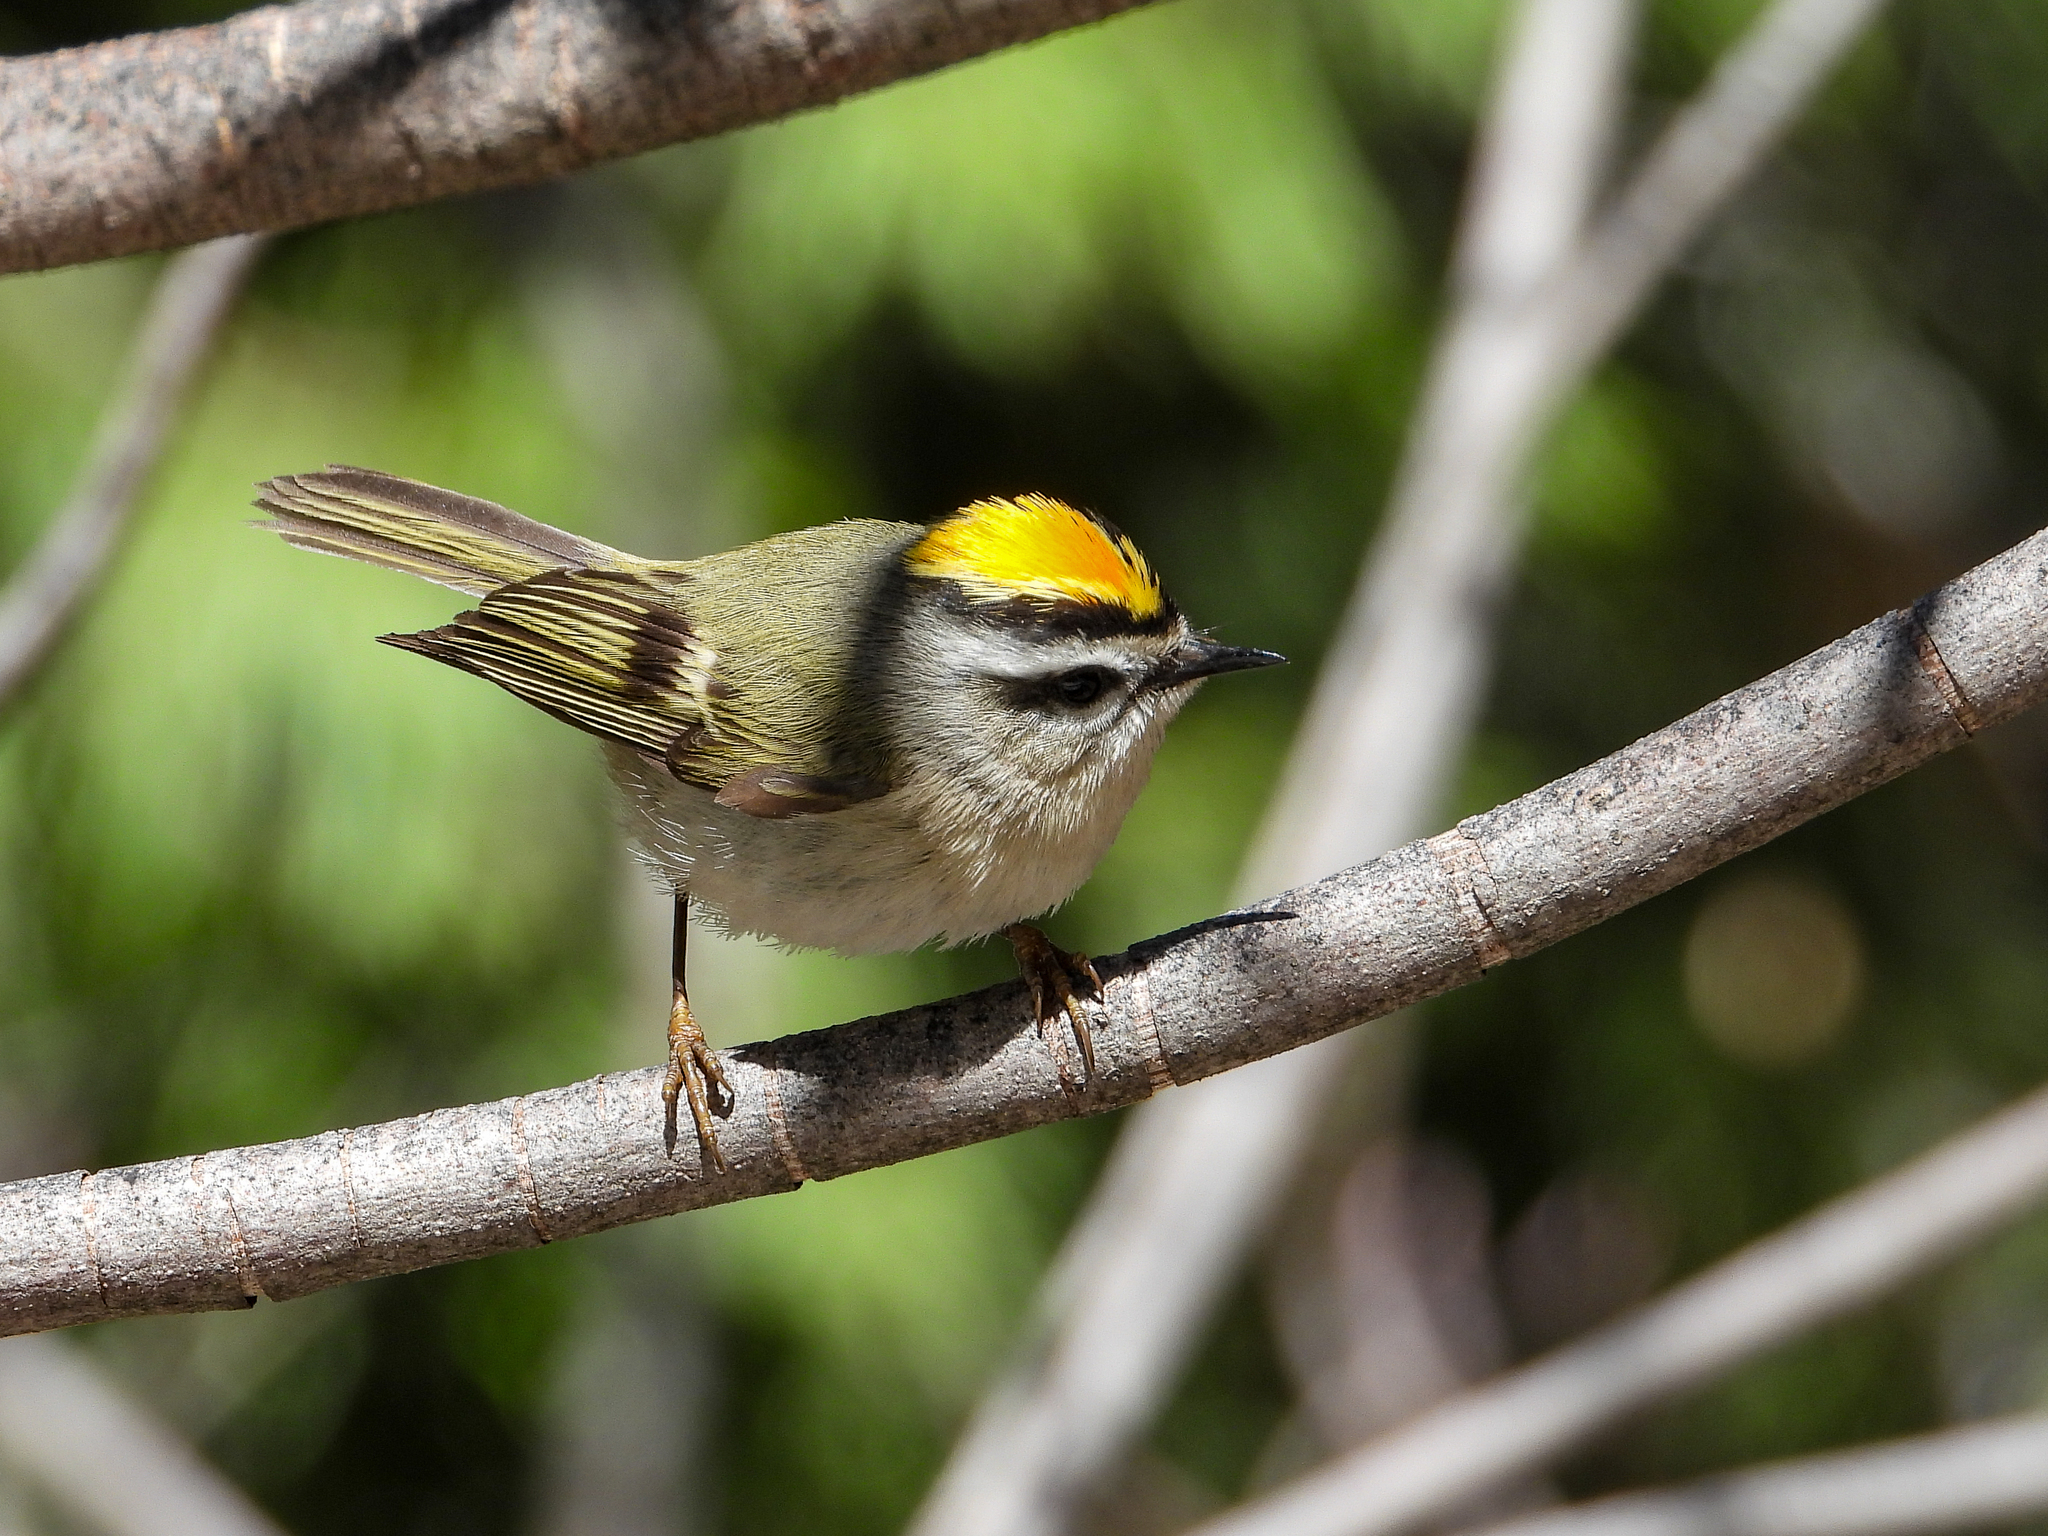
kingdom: Animalia
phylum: Chordata
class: Aves
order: Passeriformes
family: Regulidae
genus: Regulus
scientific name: Regulus satrapa
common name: Golden-crowned kinglet
